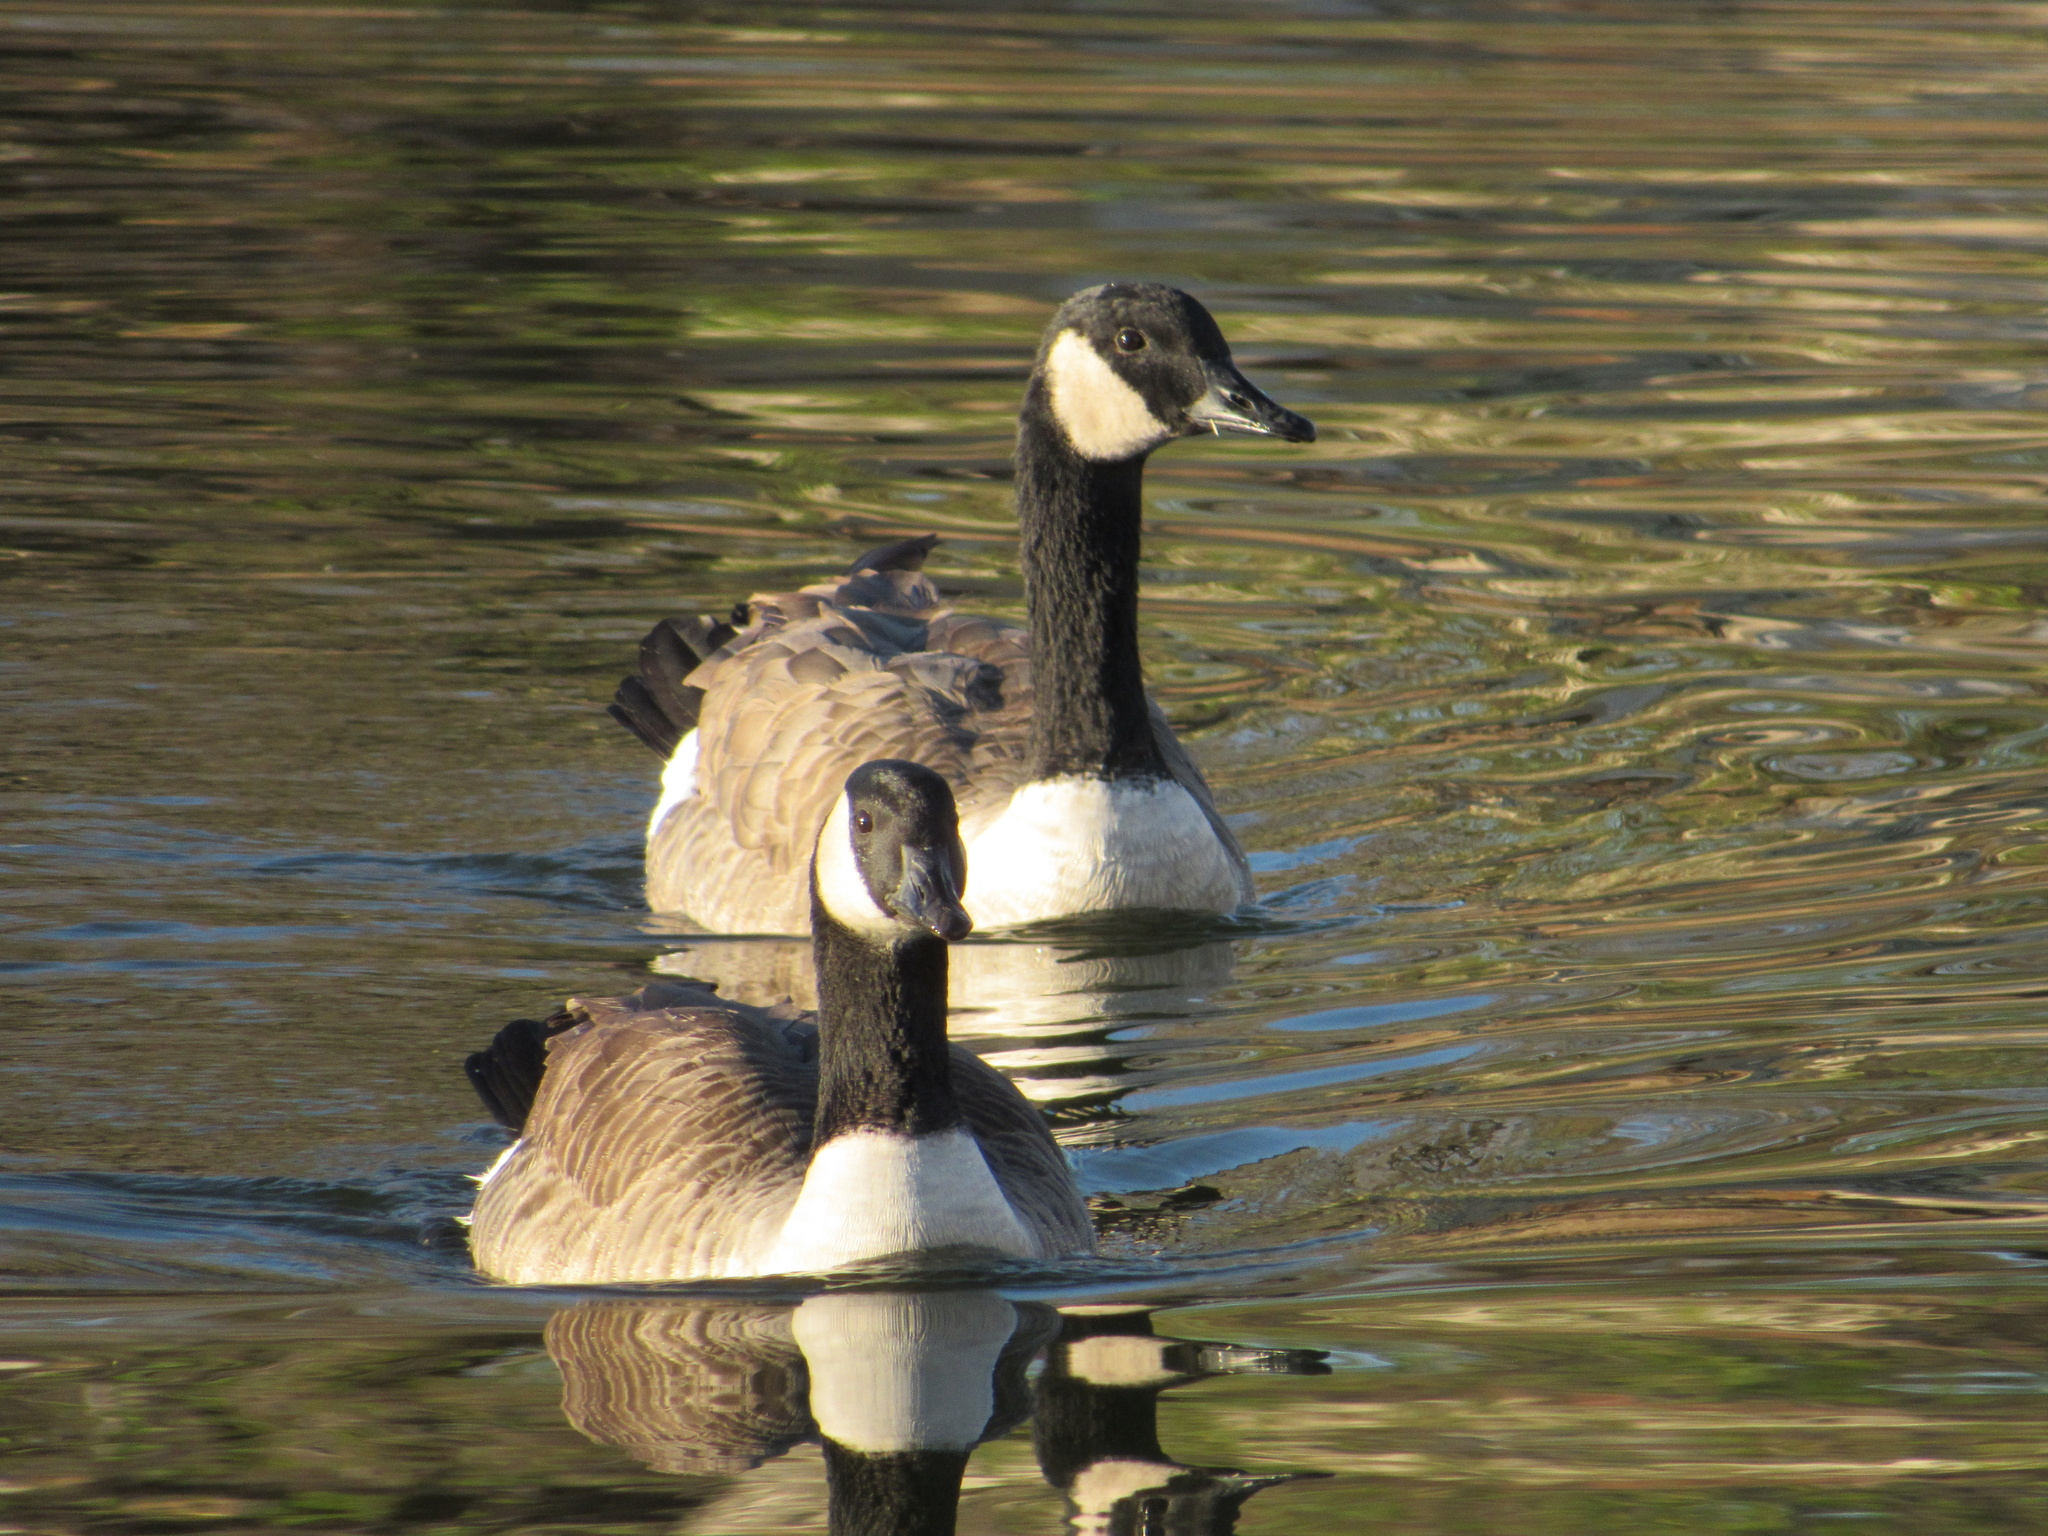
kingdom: Animalia
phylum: Chordata
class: Aves
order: Anseriformes
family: Anatidae
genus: Branta
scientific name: Branta canadensis
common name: Canada goose
